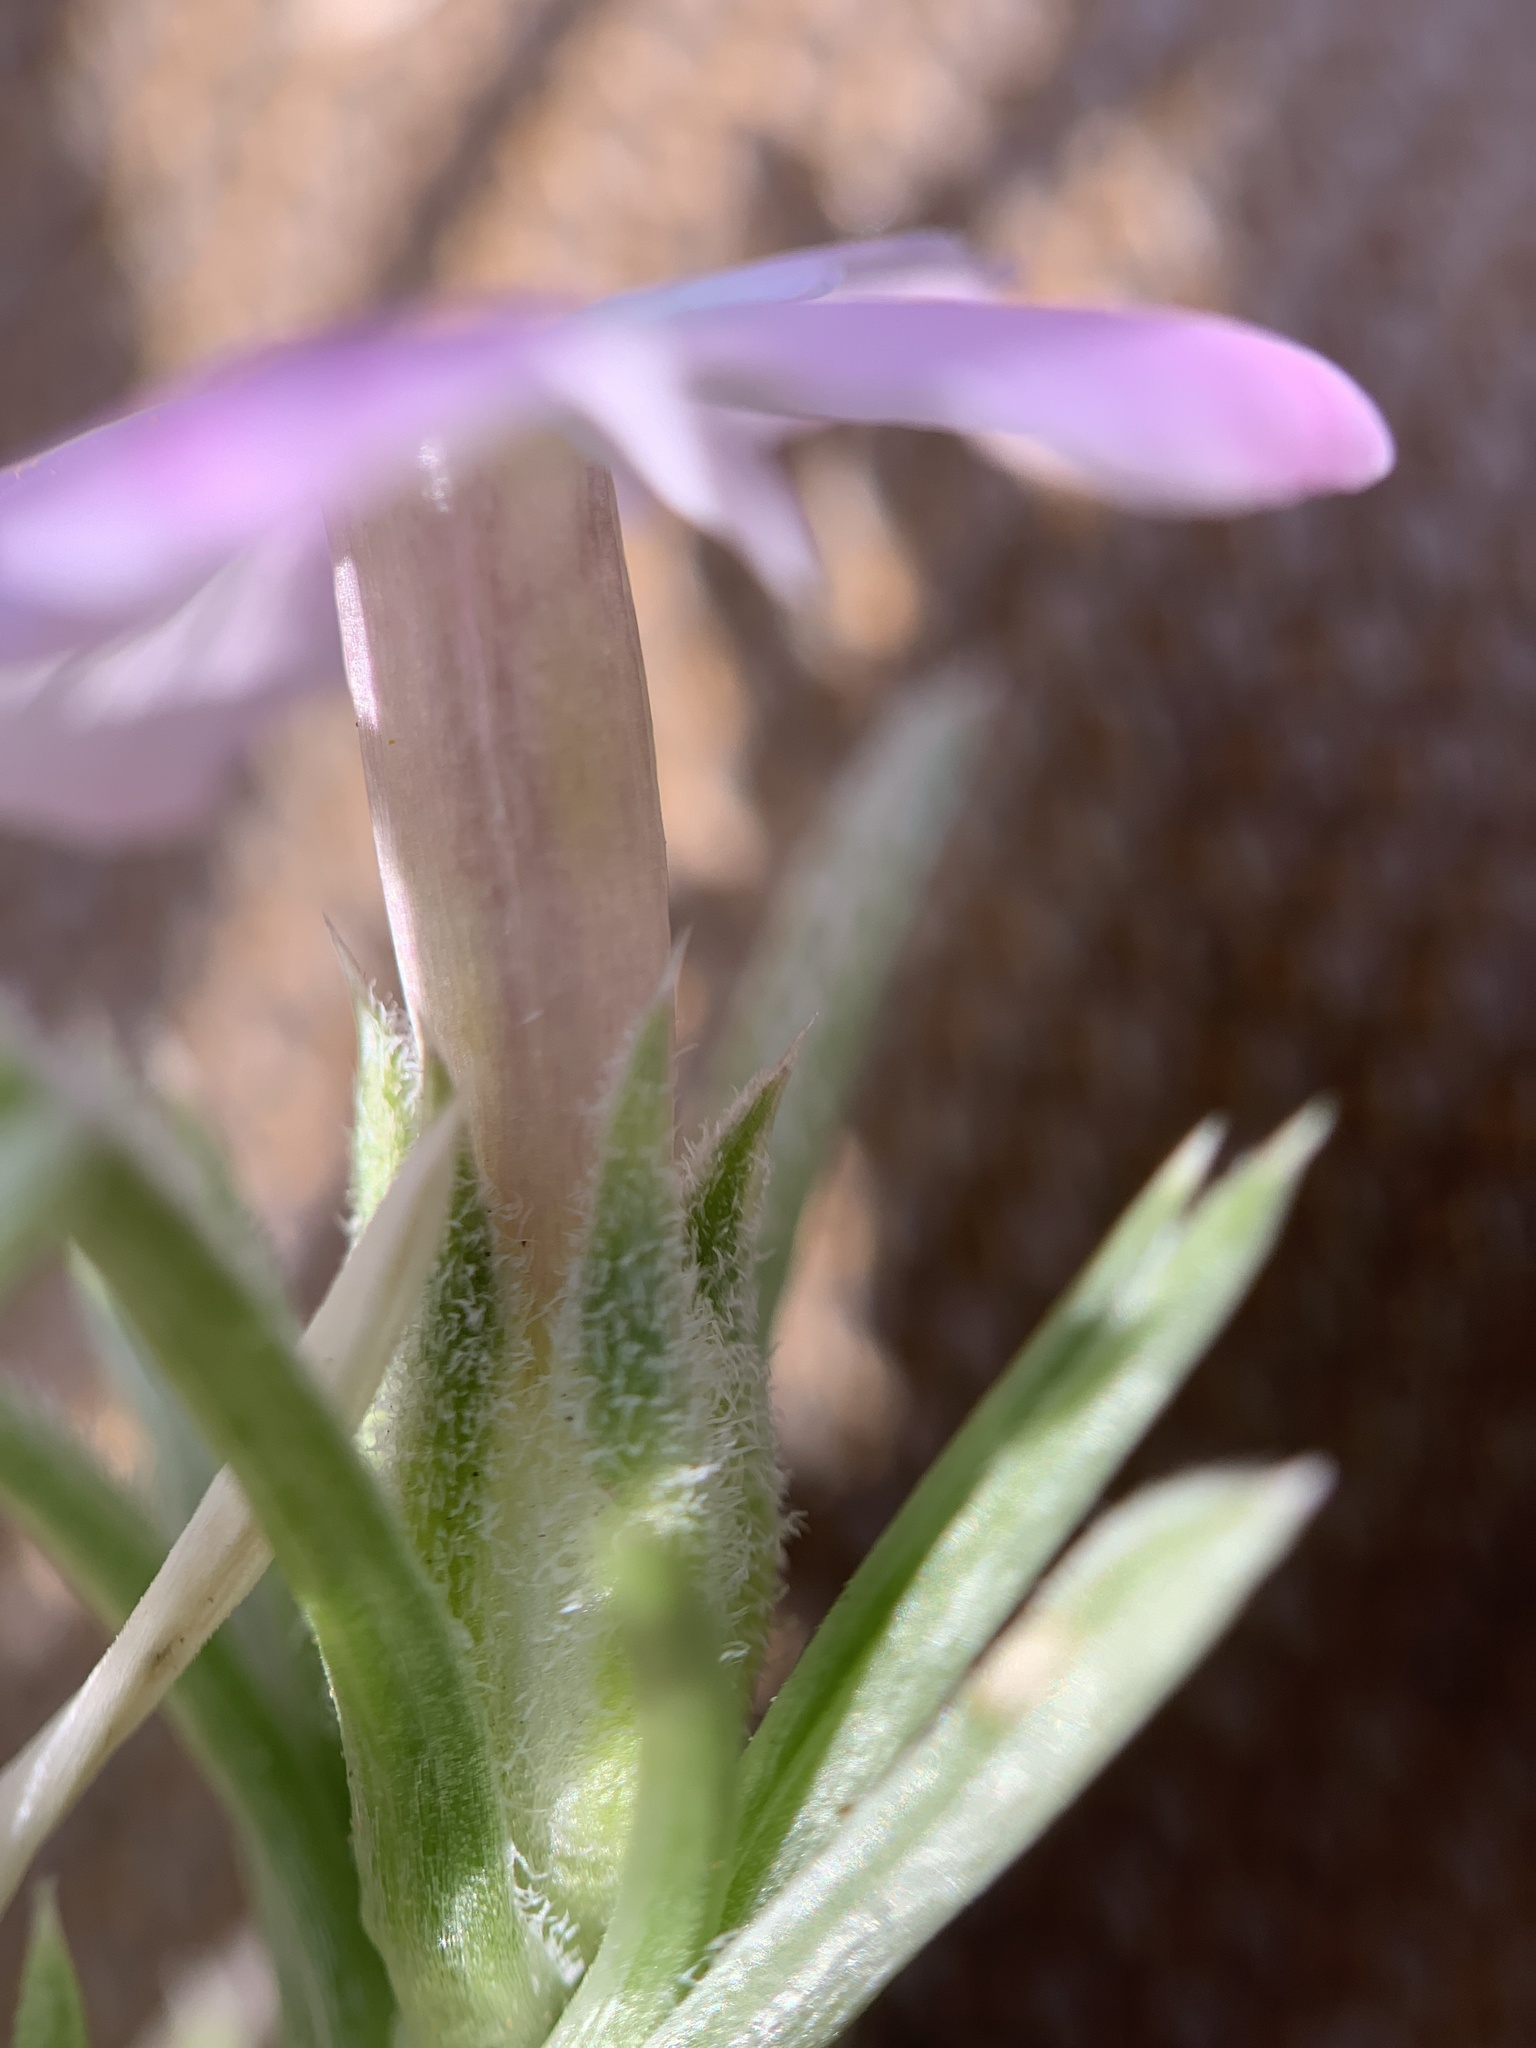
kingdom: Plantae
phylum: Tracheophyta
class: Magnoliopsida
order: Ericales
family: Polemoniaceae
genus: Phlox
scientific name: Phlox austromontana
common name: Desert phlox
